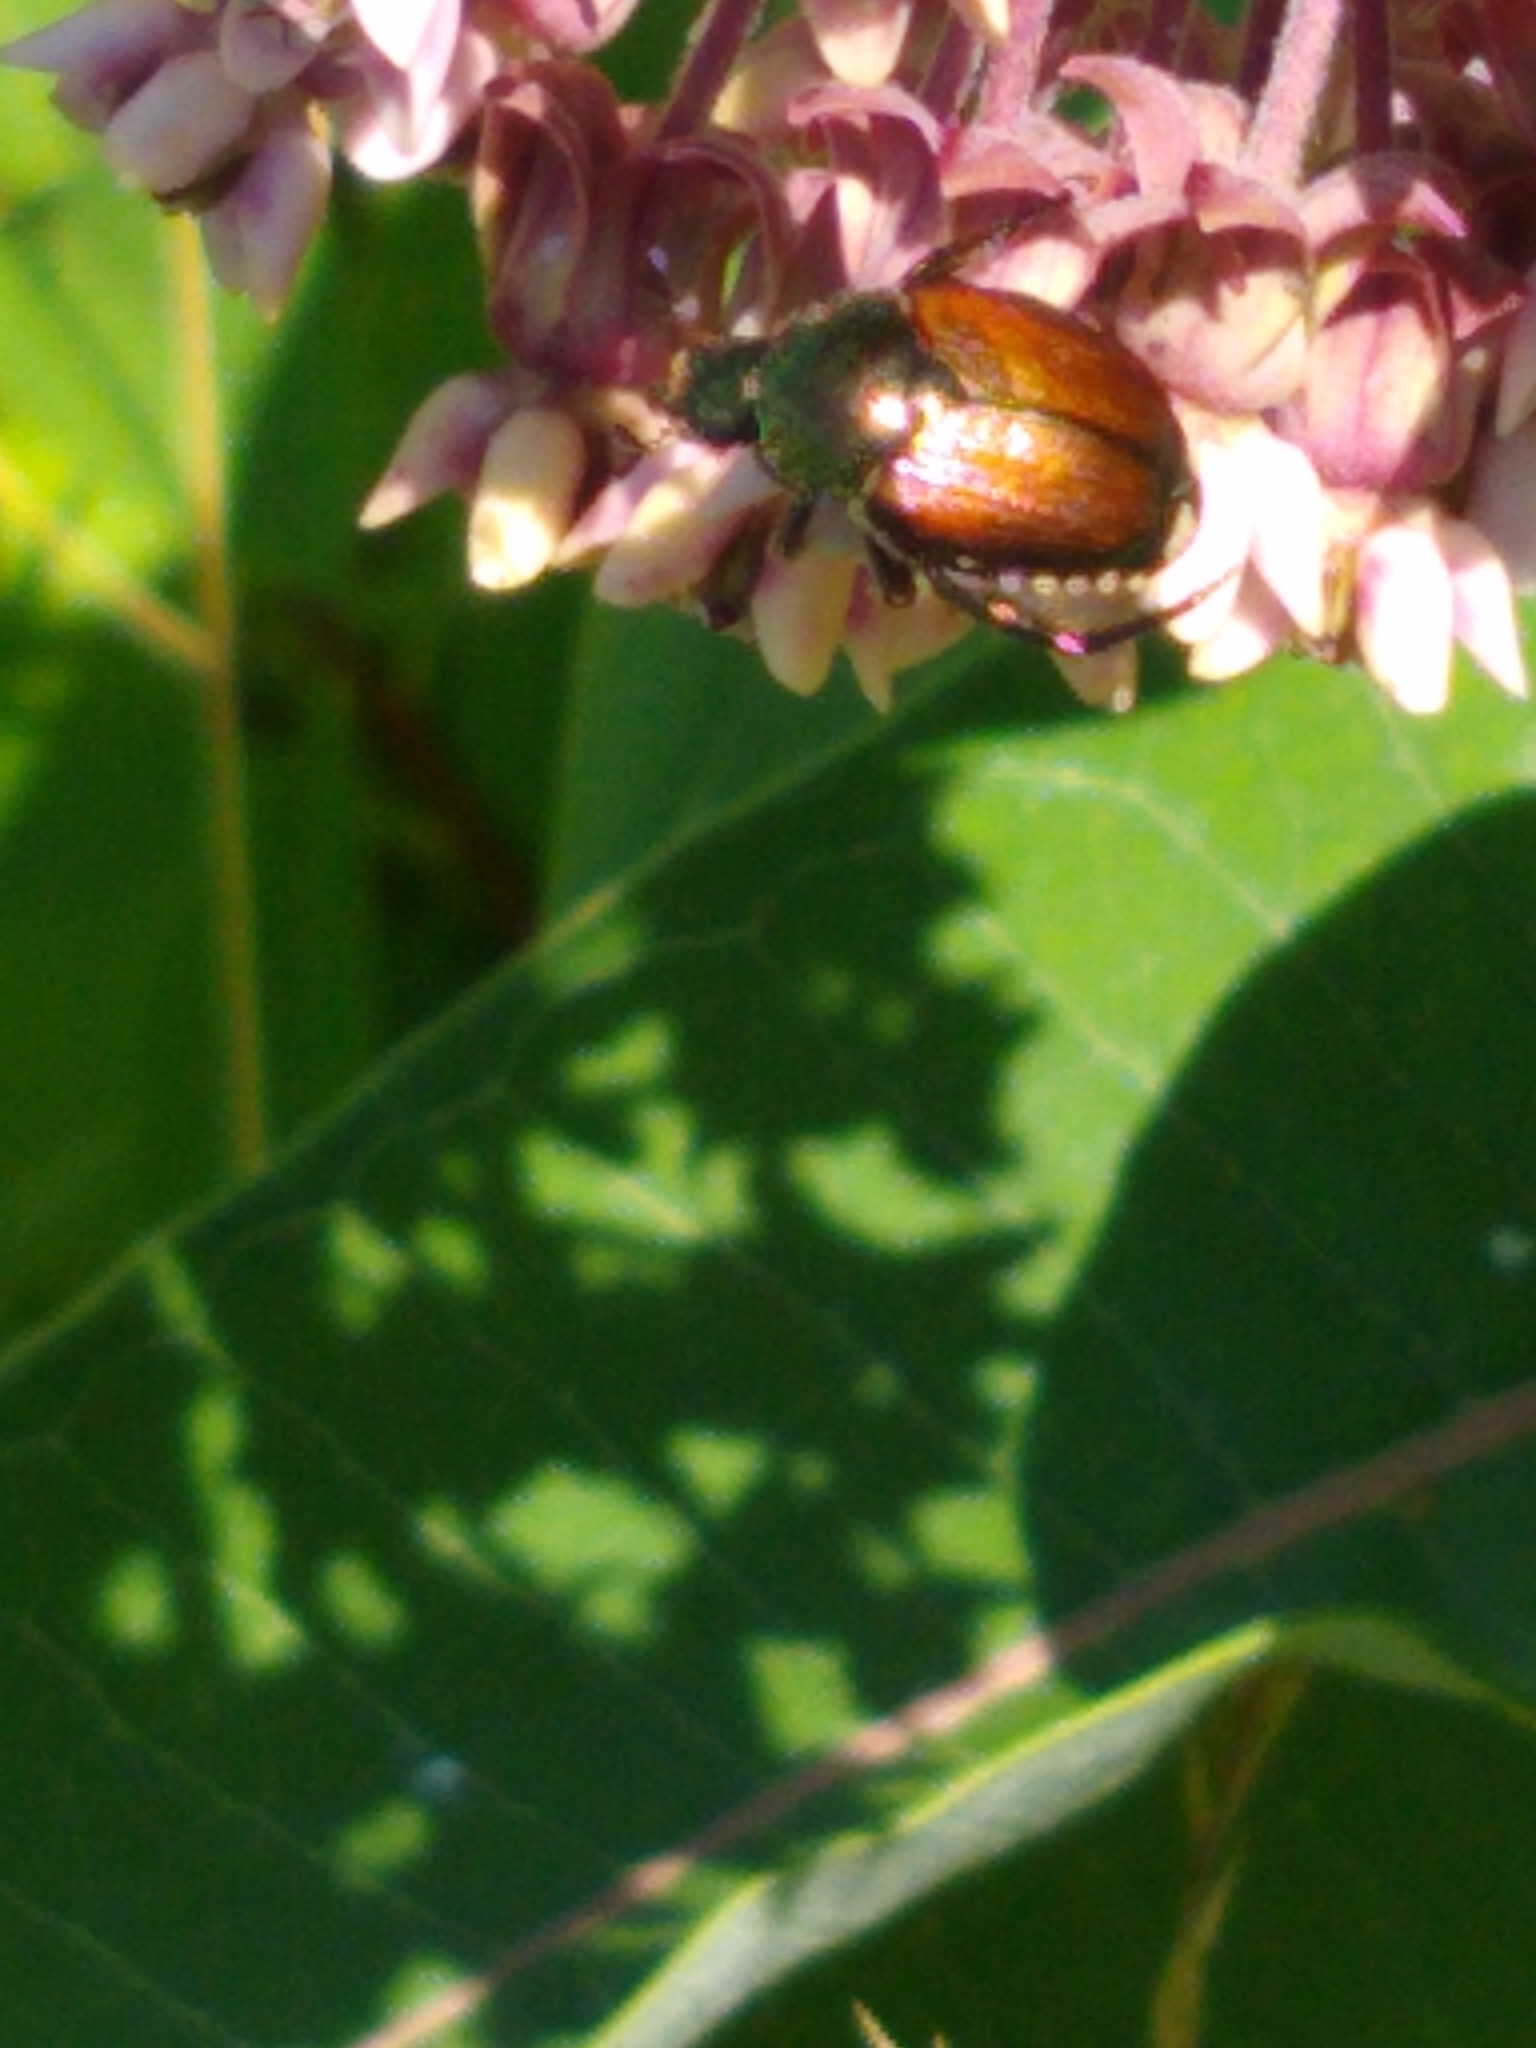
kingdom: Animalia
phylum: Arthropoda
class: Insecta
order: Coleoptera
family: Scarabaeidae
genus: Popillia
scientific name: Popillia japonica
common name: Japanese beetle
